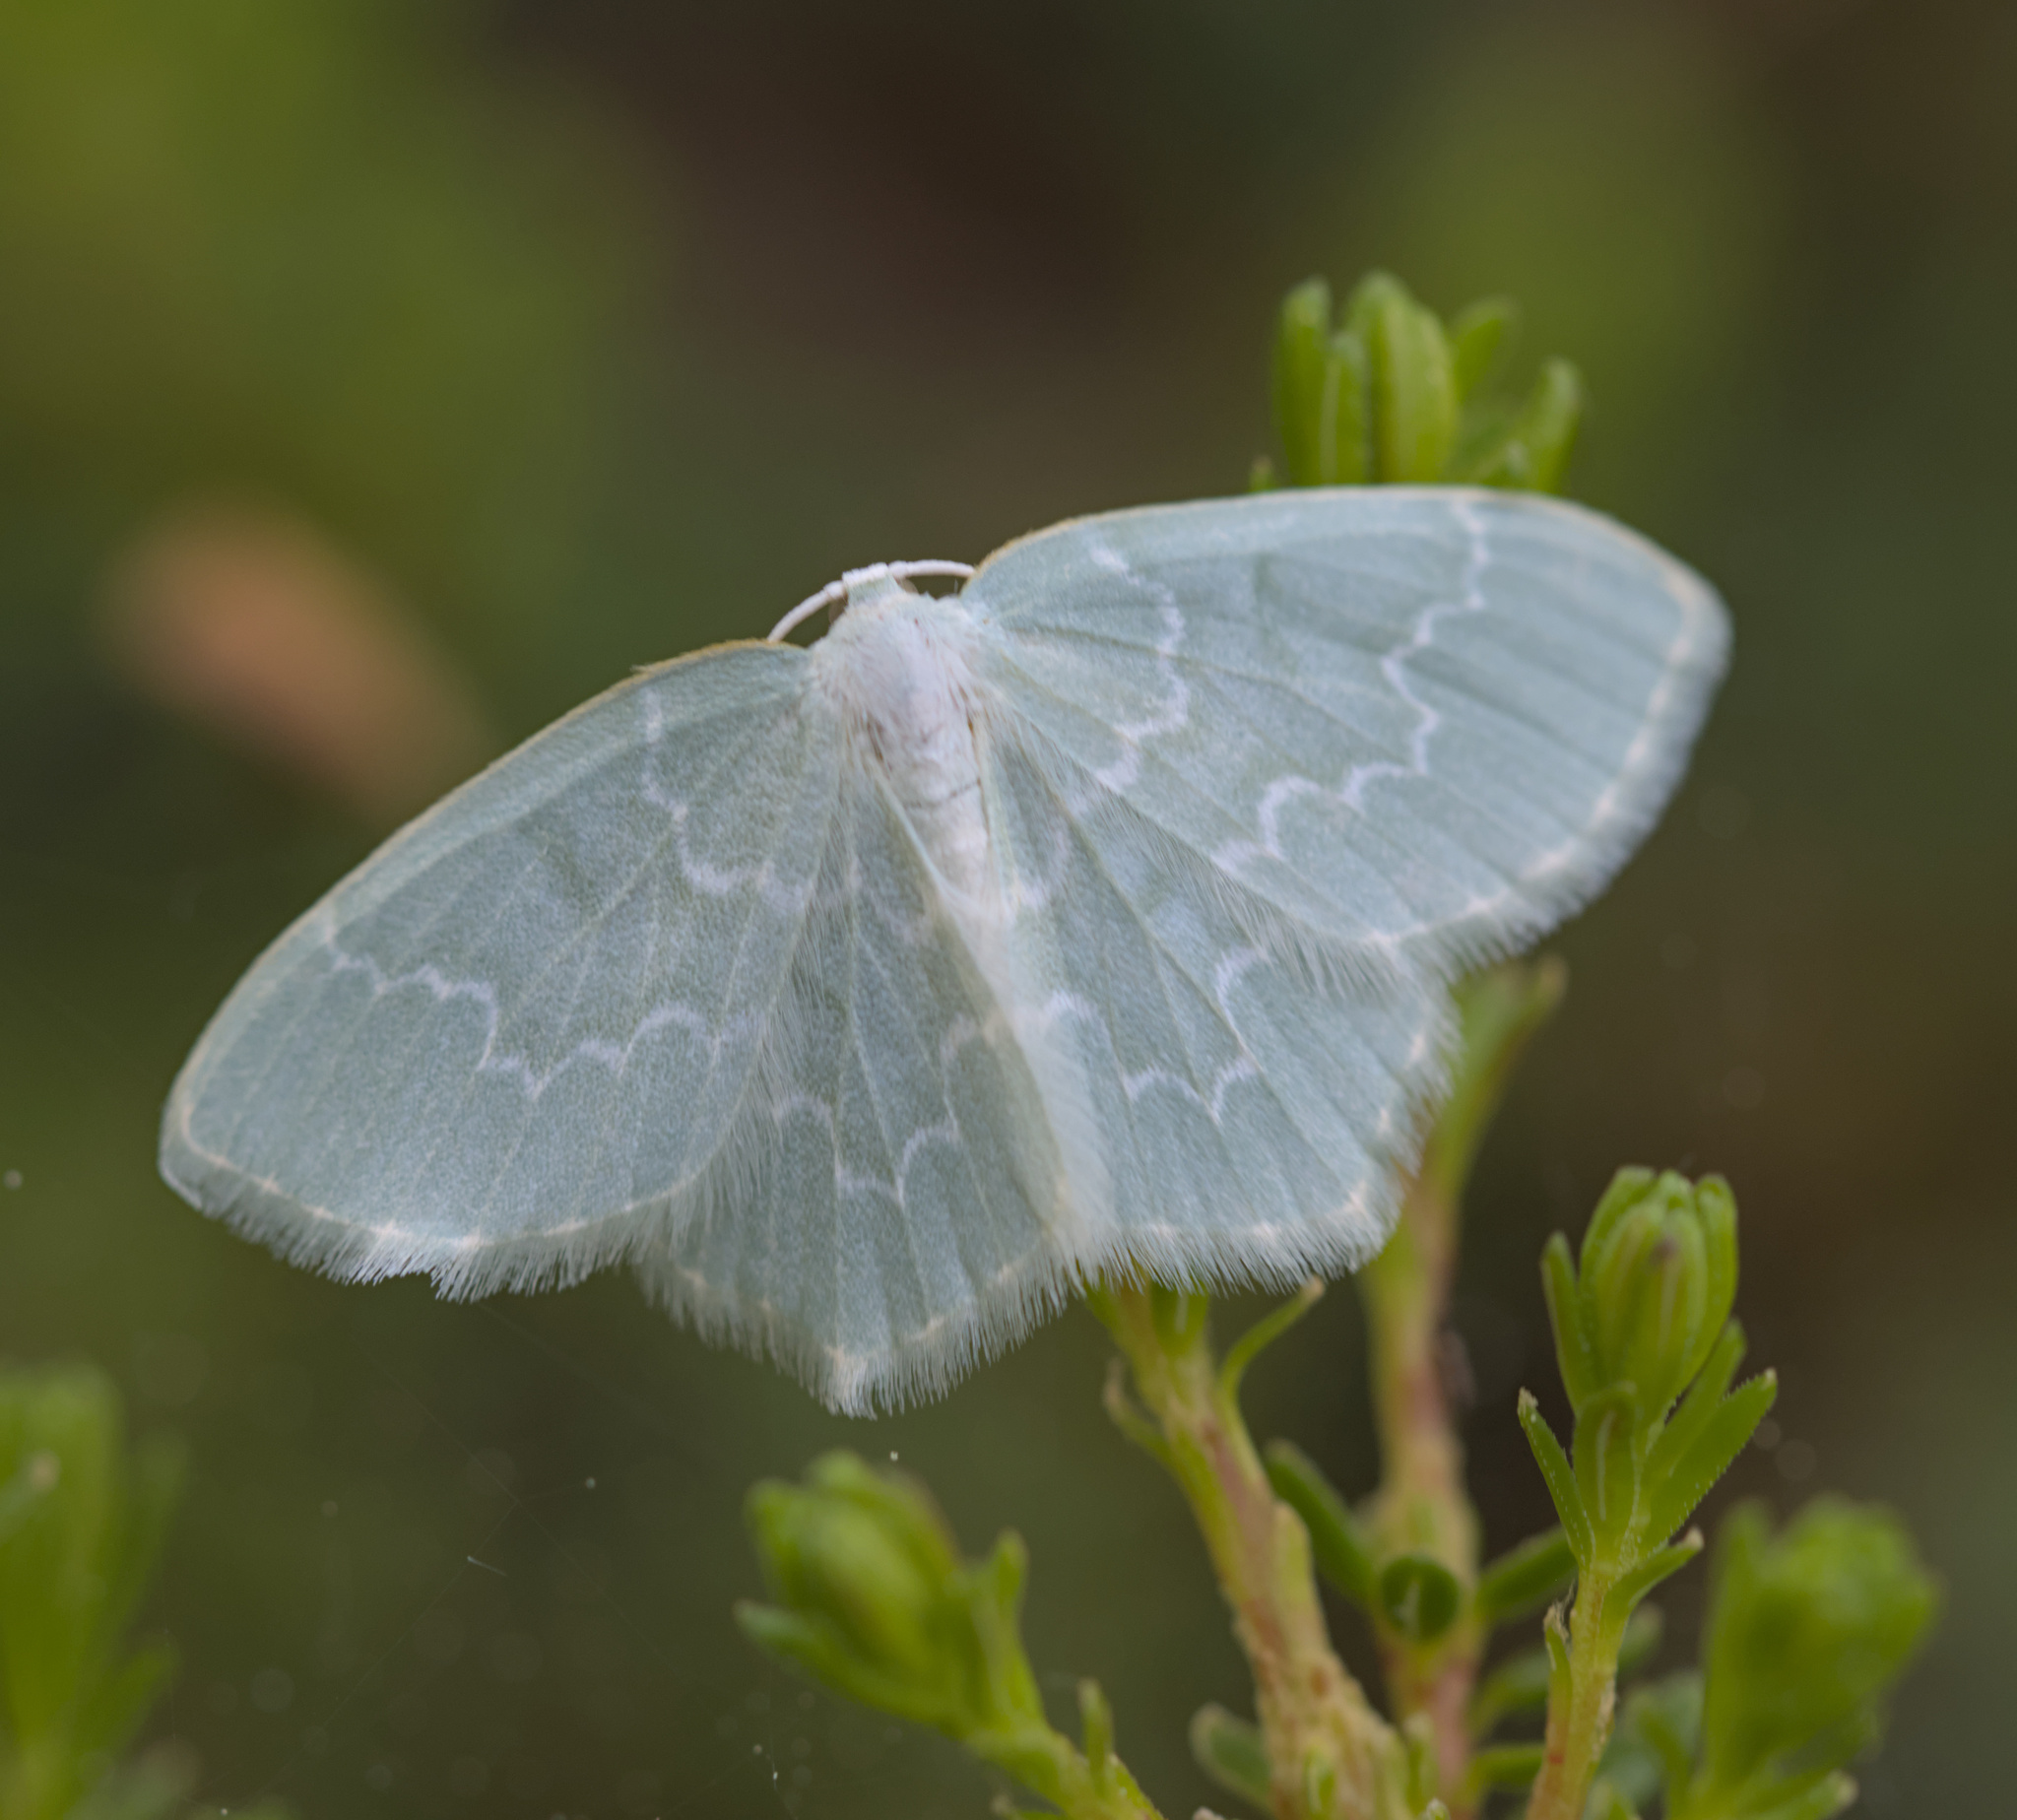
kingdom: Animalia
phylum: Arthropoda
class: Insecta
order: Lepidoptera
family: Geometridae
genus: Jodis
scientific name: Jodis putata
